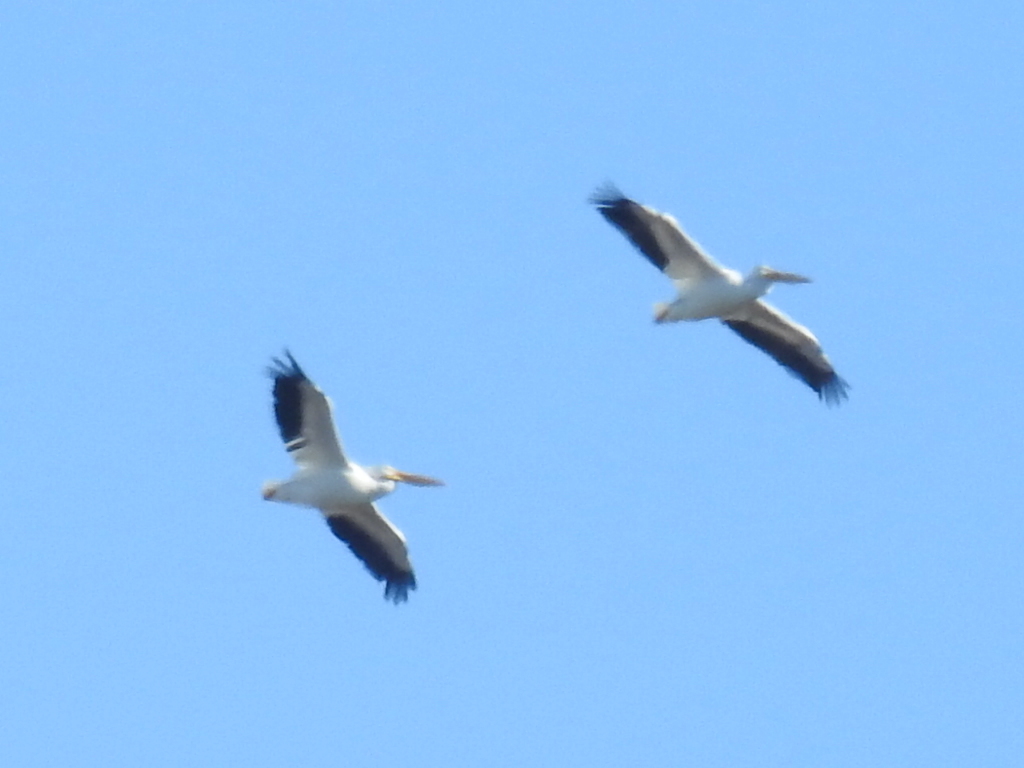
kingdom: Animalia
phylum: Chordata
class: Aves
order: Pelecaniformes
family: Pelecanidae
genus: Pelecanus
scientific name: Pelecanus erythrorhynchos
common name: American white pelican
